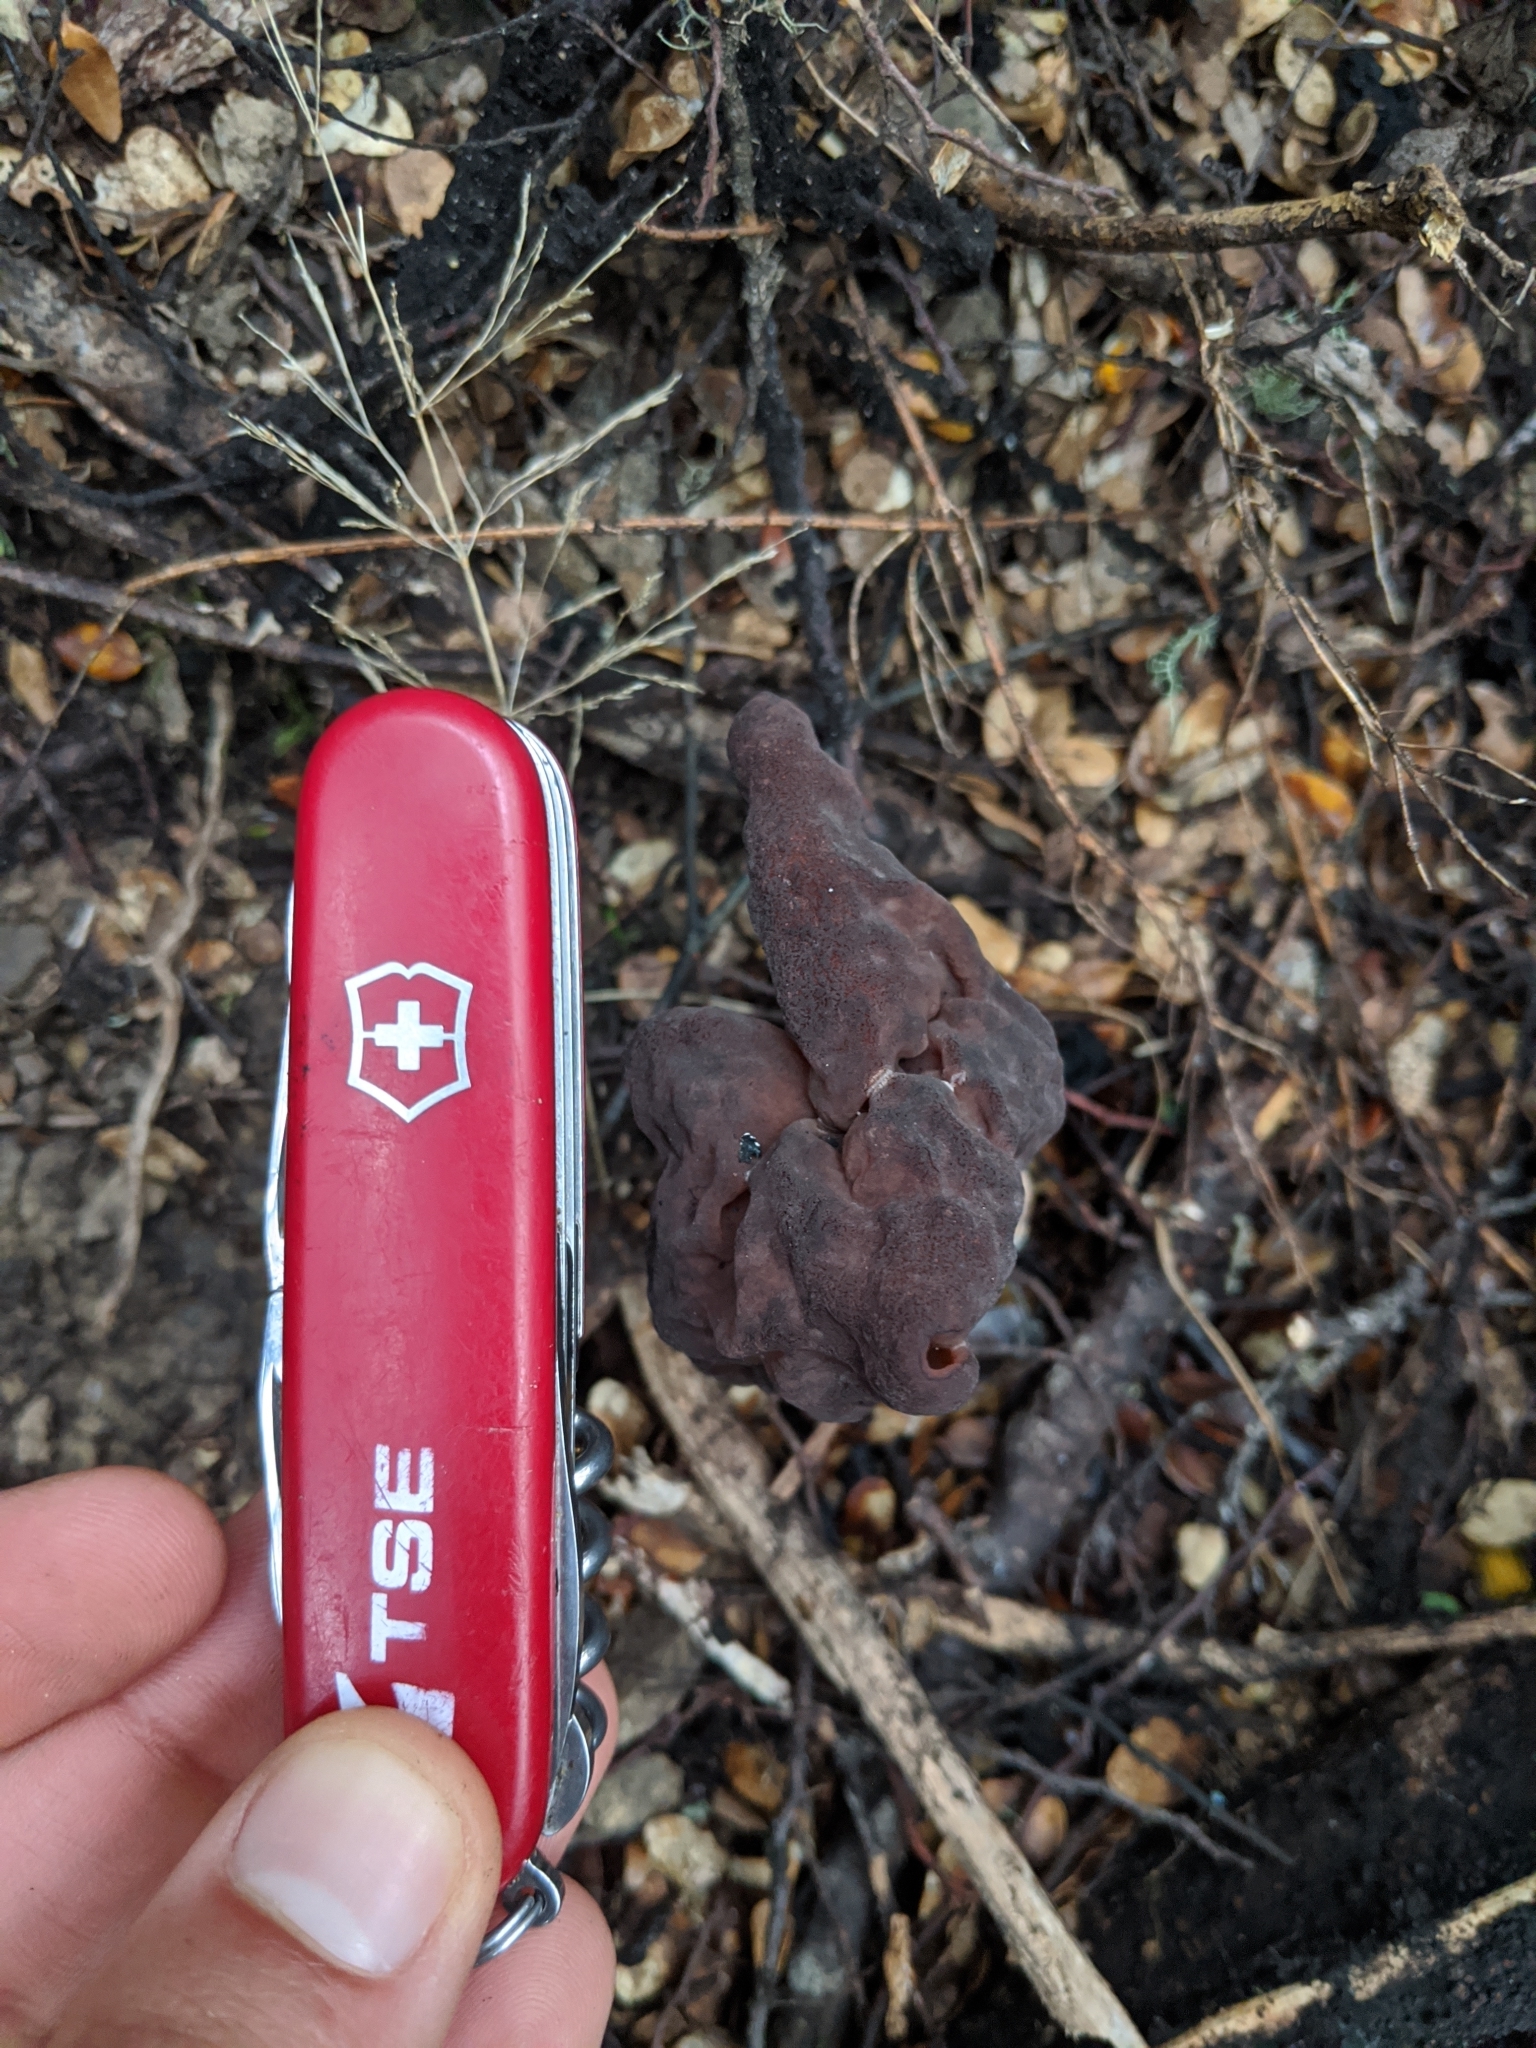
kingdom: Fungi
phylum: Ascomycota
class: Pezizomycetes
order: Pezizales
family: Discinaceae
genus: Gyromitra
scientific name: Gyromitra tasmanica
